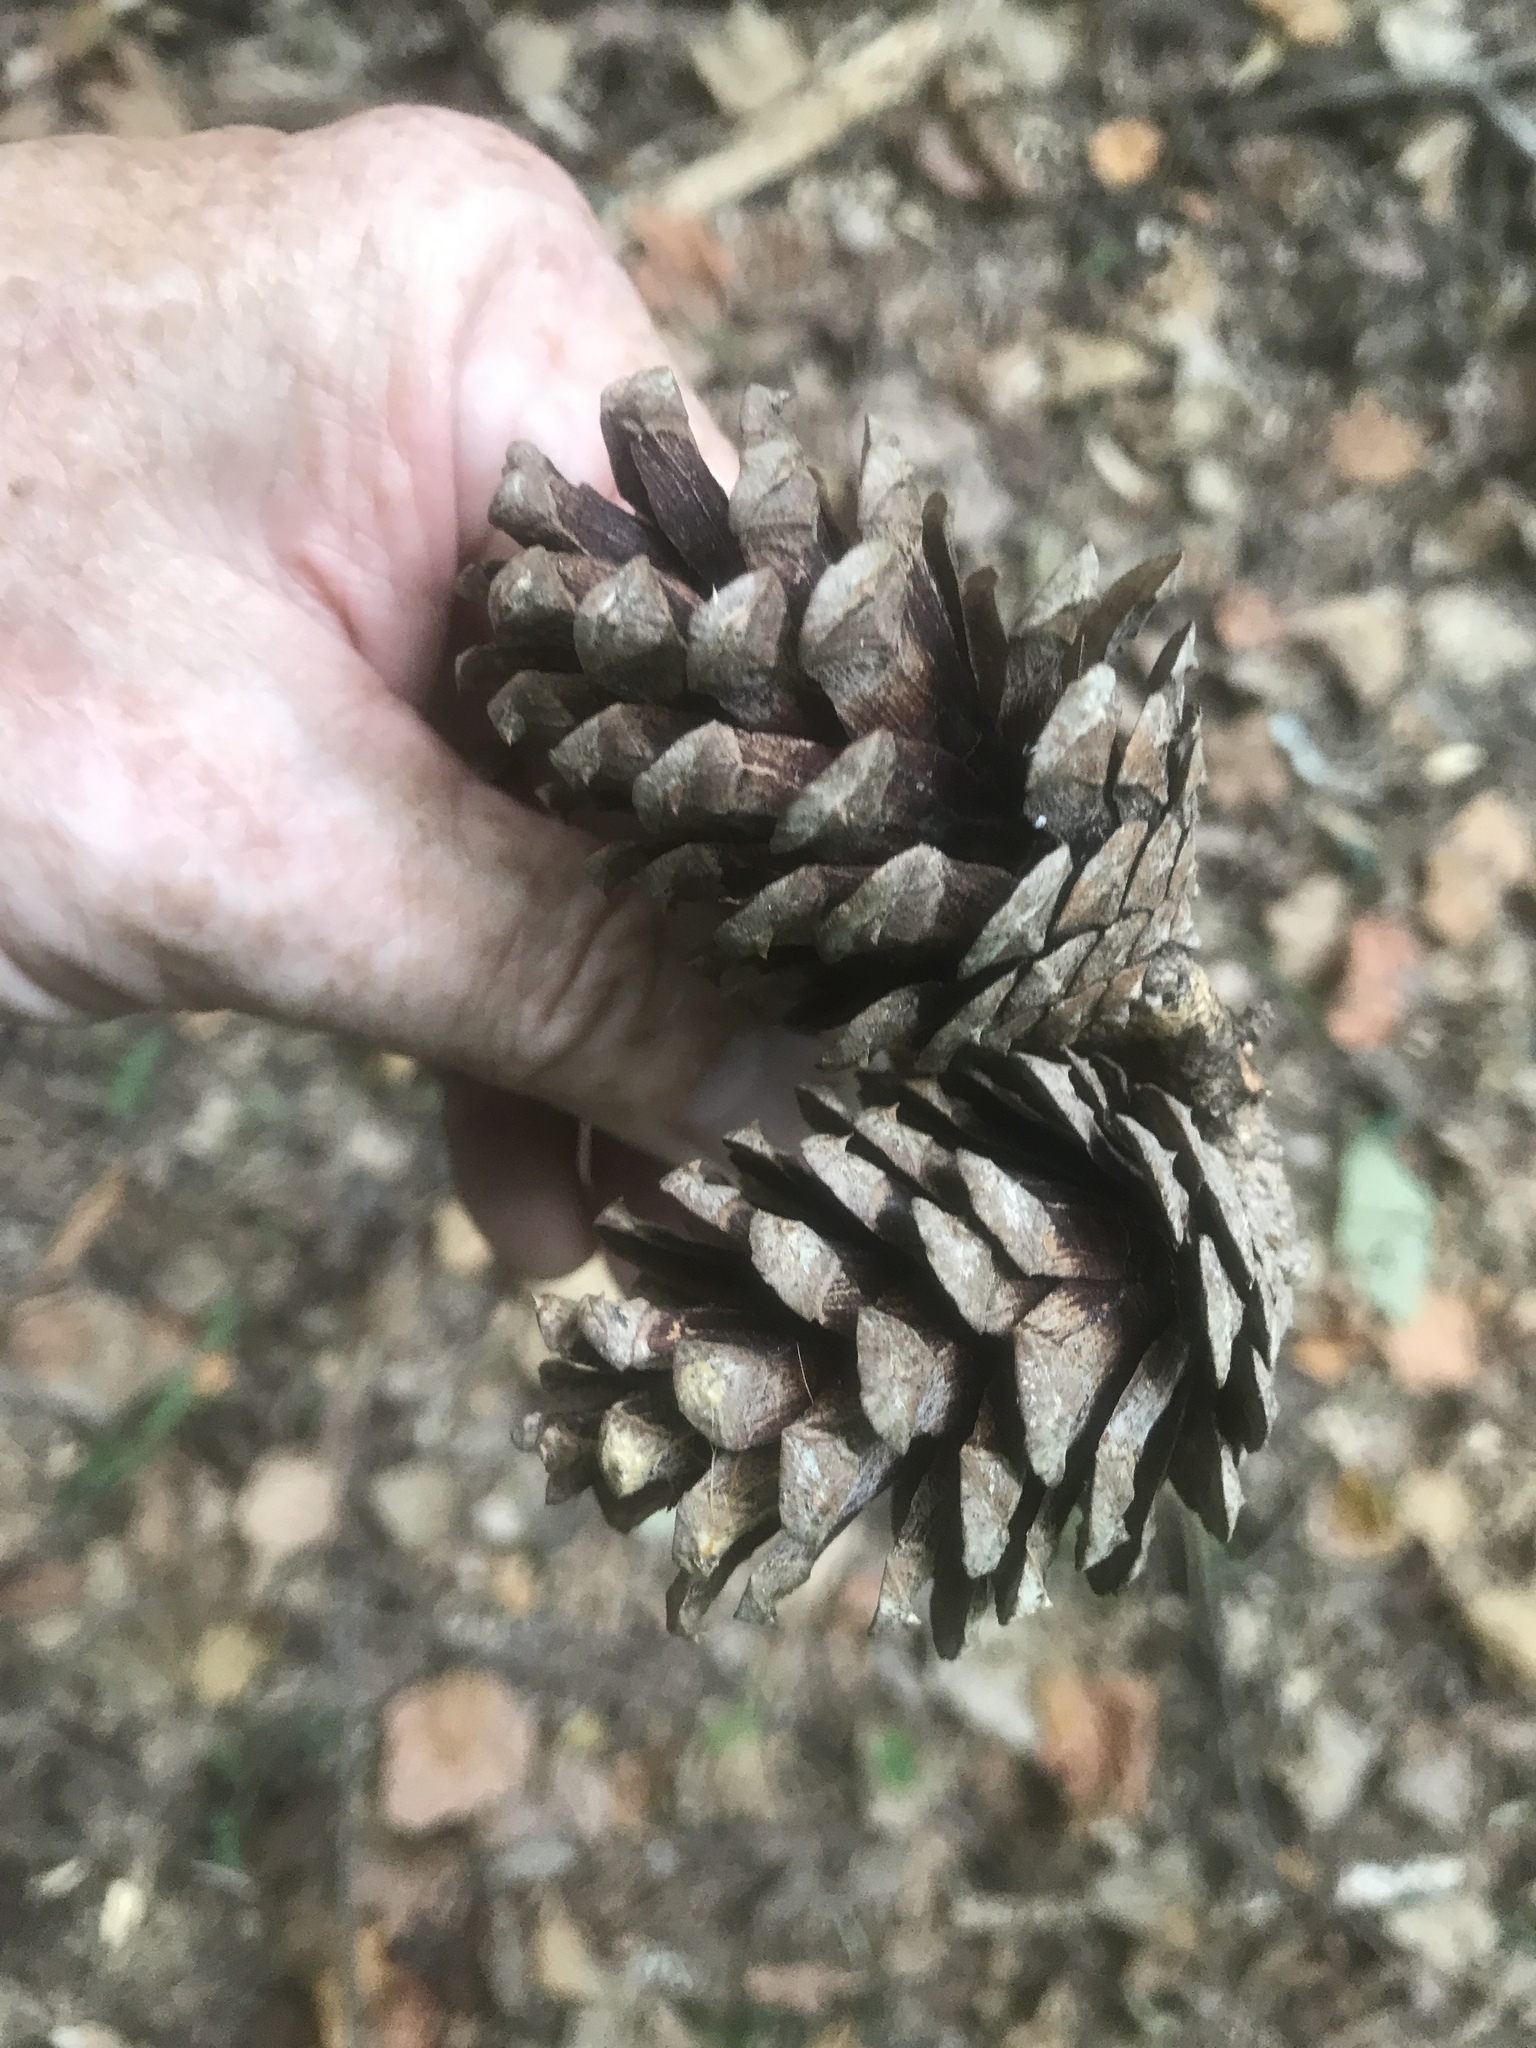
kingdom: Plantae
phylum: Tracheophyta
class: Pinopsida
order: Pinales
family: Pinaceae
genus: Pinus
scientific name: Pinus echinata
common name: Shortleaf pine
